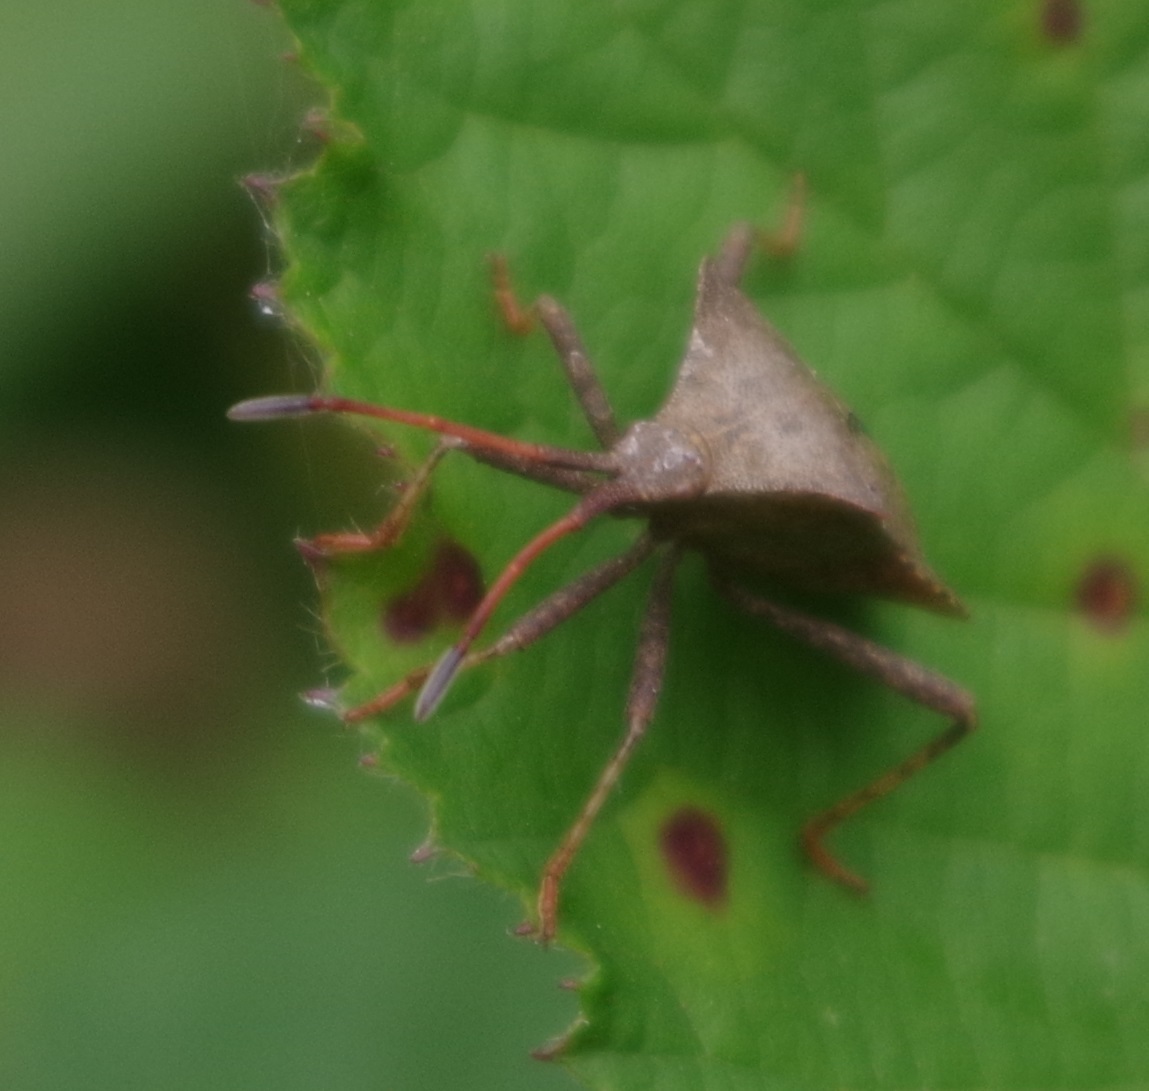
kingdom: Animalia
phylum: Arthropoda
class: Insecta
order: Hemiptera
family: Coreidae
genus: Coreus
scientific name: Coreus marginatus
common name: Dock bug
